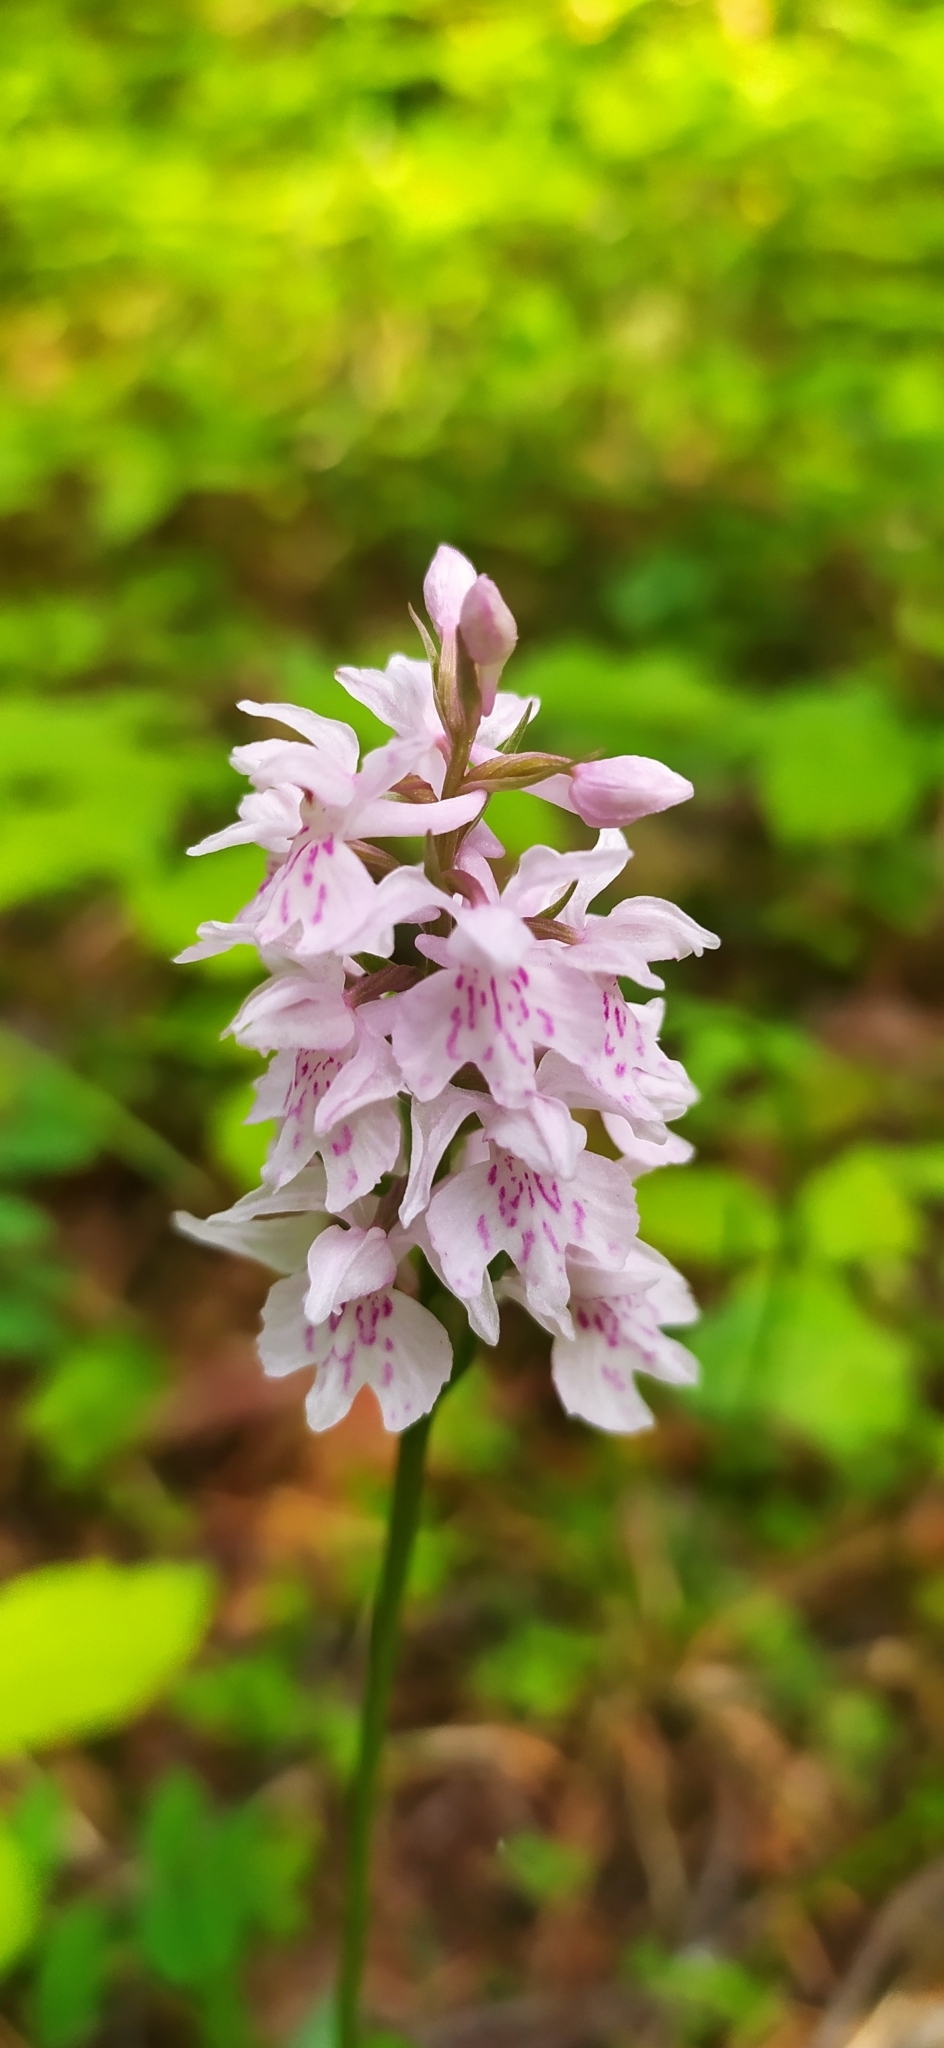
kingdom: Plantae
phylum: Tracheophyta
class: Liliopsida
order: Asparagales
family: Orchidaceae
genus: Dactylorhiza
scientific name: Dactylorhiza maculata
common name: Heath spotted-orchid
